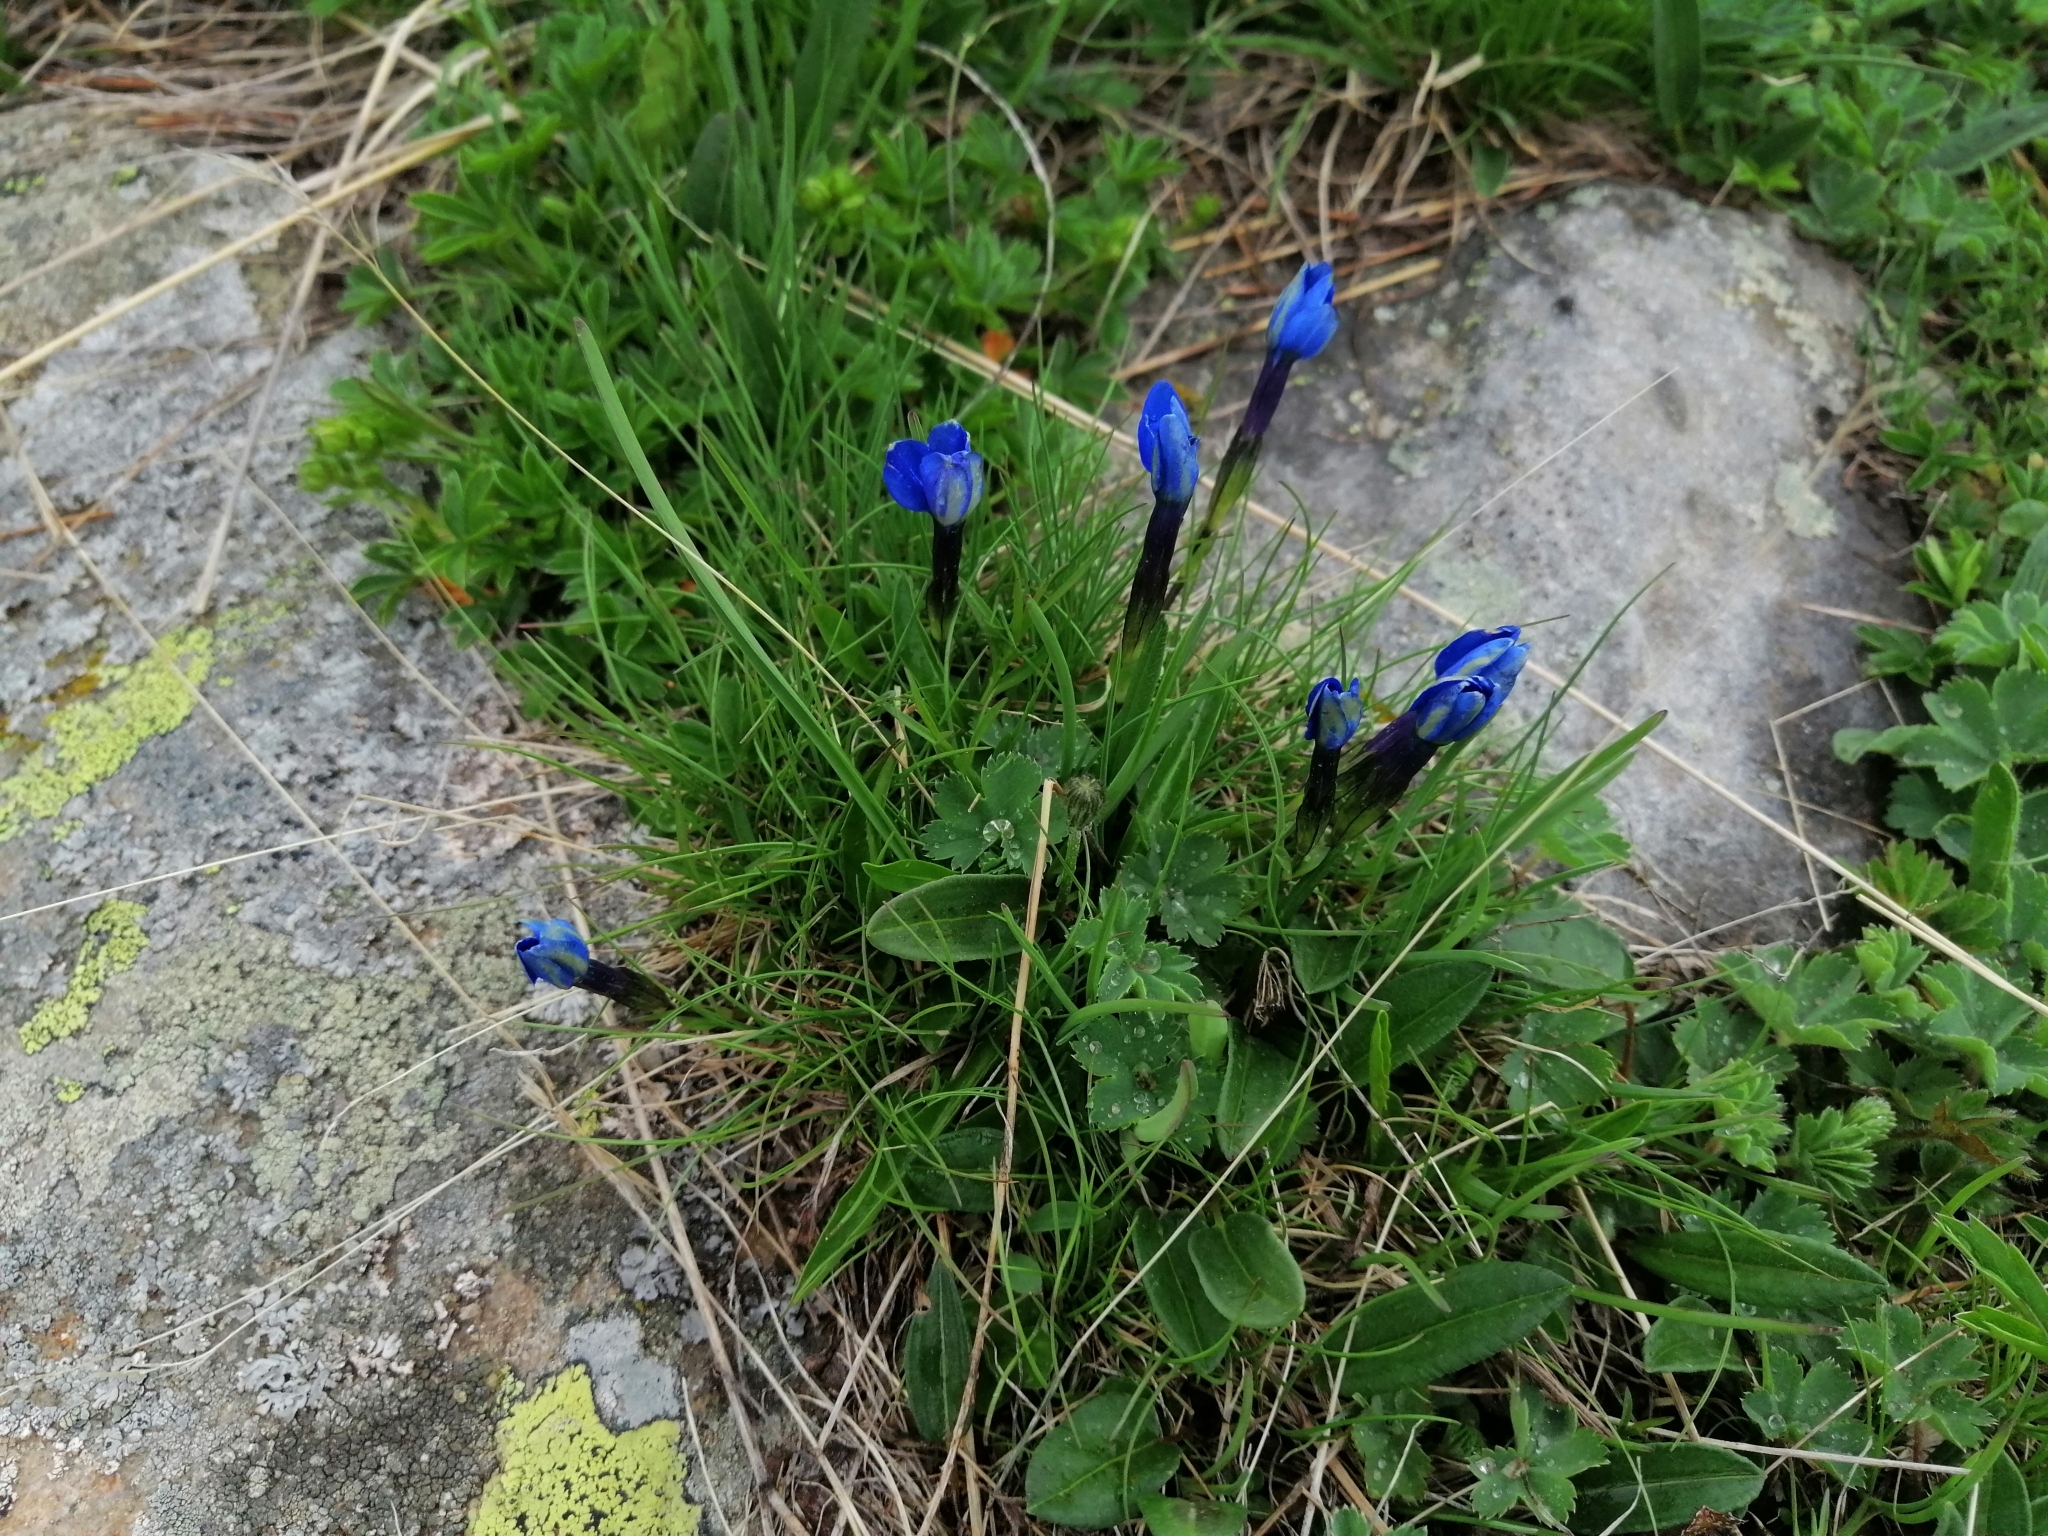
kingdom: Plantae
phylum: Tracheophyta
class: Magnoliopsida
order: Gentianales
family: Gentianaceae
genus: Gentiana
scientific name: Gentiana brachyphylla
